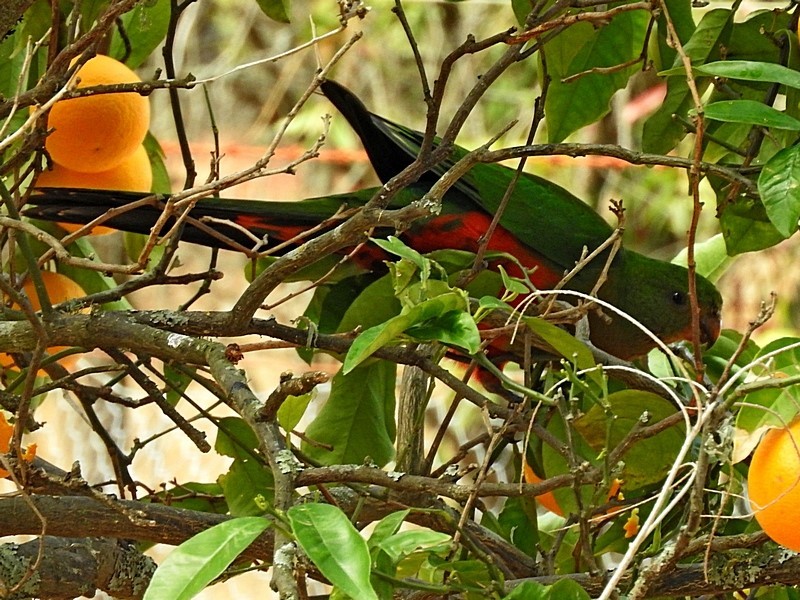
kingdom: Animalia
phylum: Chordata
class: Aves
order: Psittaciformes
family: Psittacidae
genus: Alisterus
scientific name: Alisterus scapularis
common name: Australian king parrot
